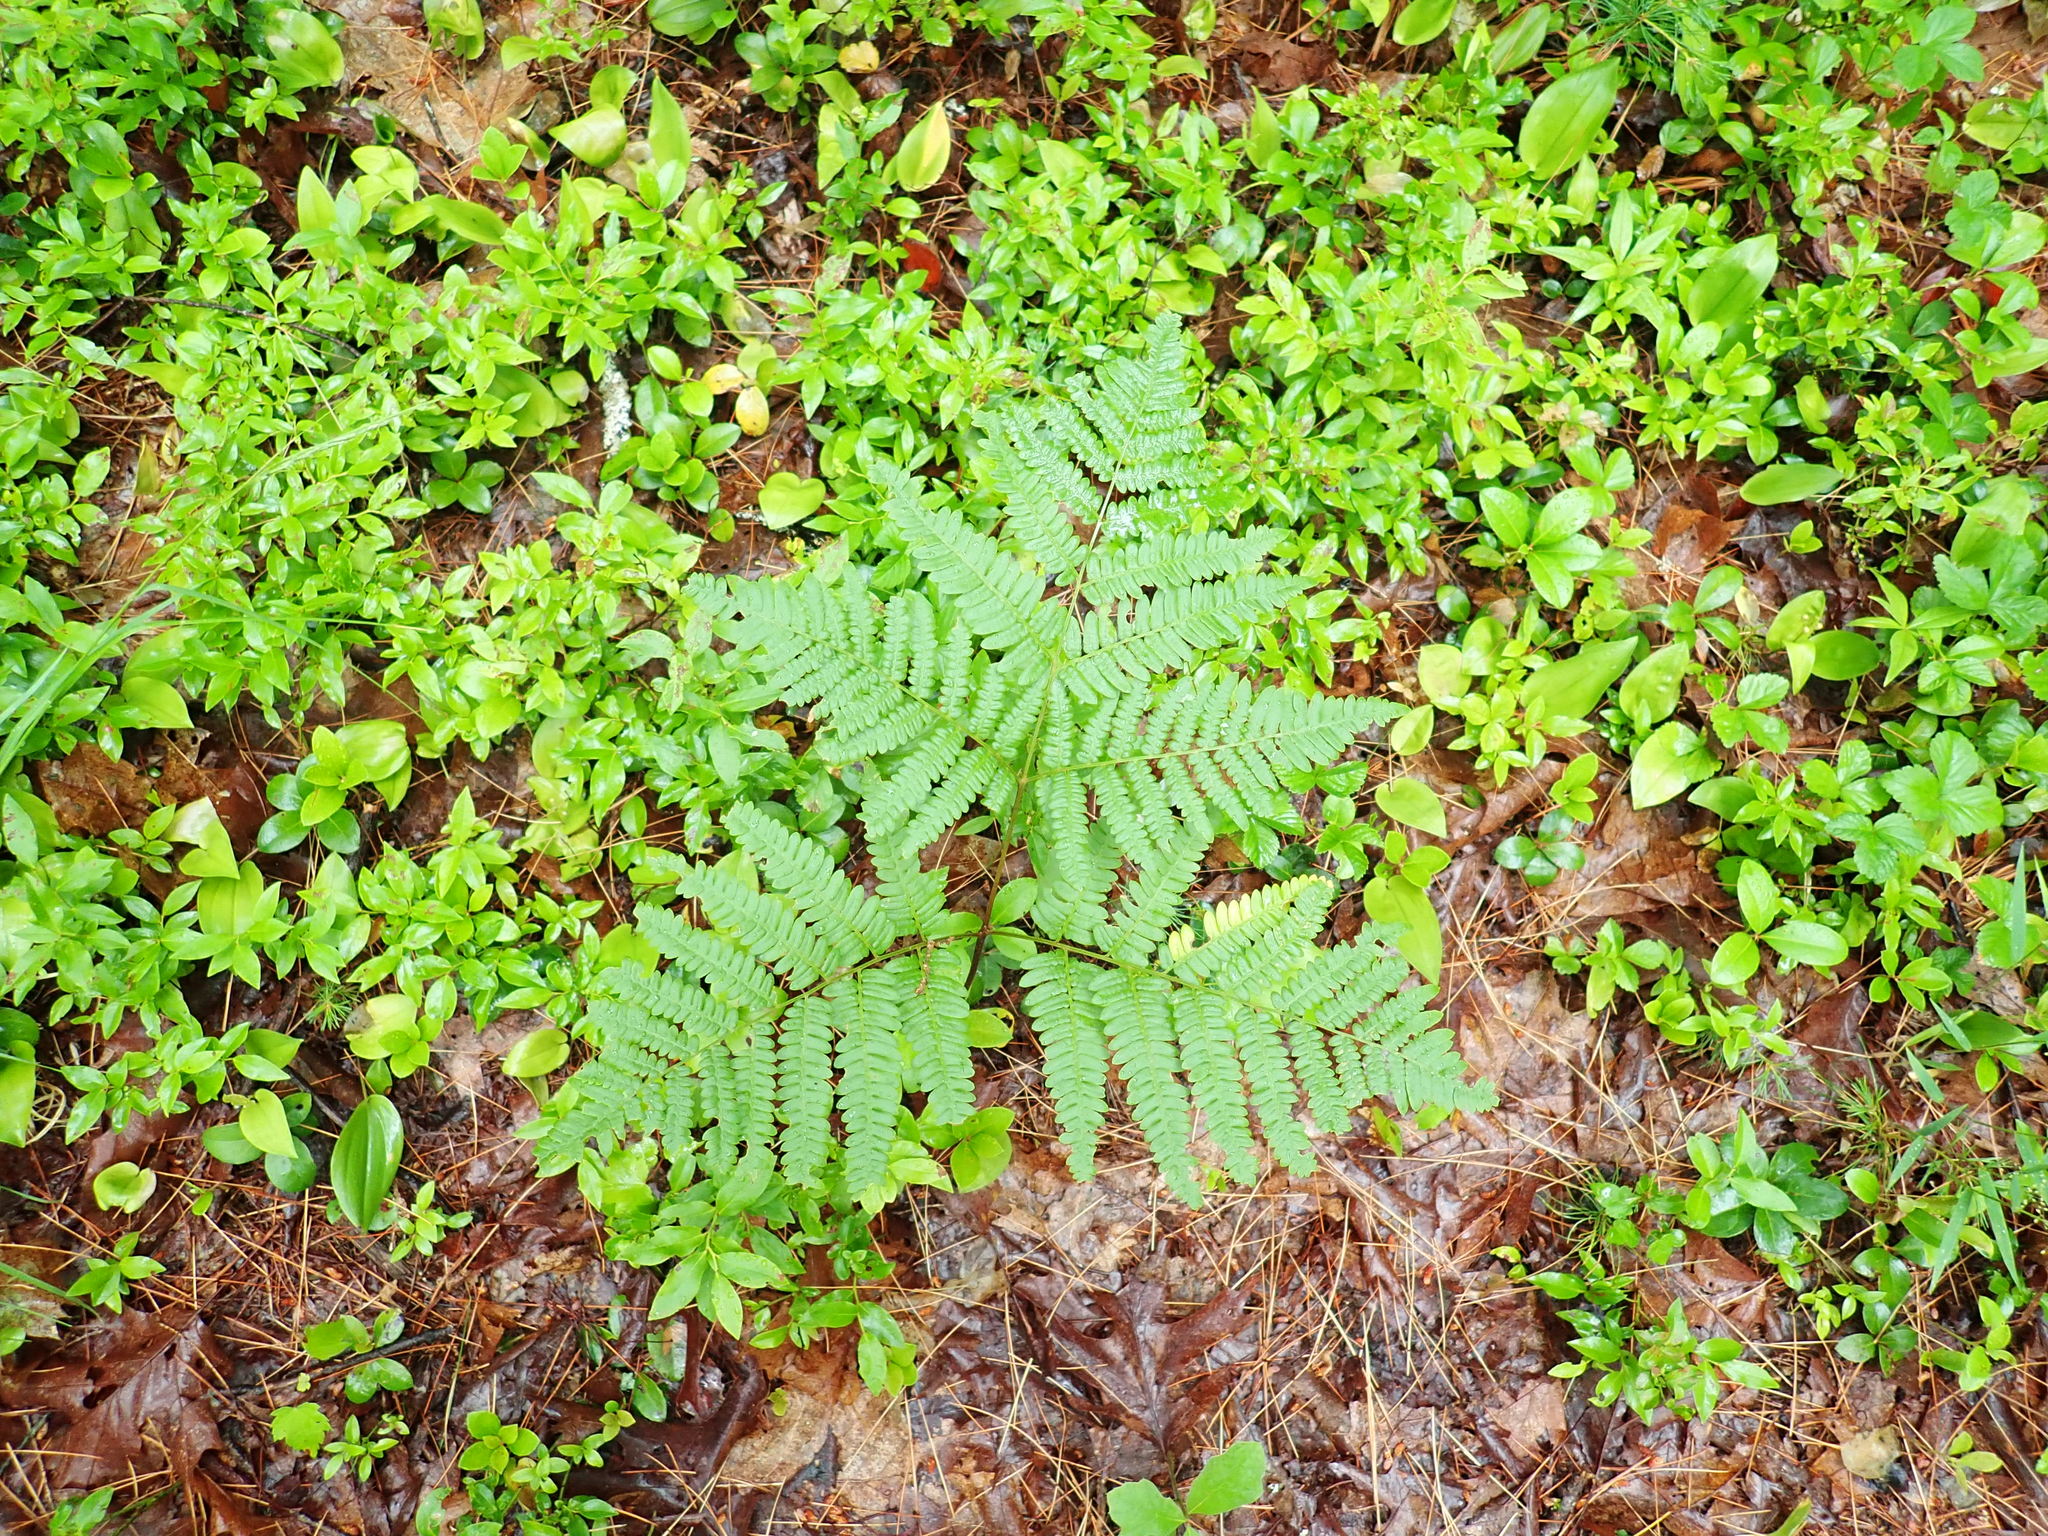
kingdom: Plantae
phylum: Tracheophyta
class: Polypodiopsida
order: Polypodiales
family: Dennstaedtiaceae
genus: Pteridium
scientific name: Pteridium aquilinum
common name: Bracken
